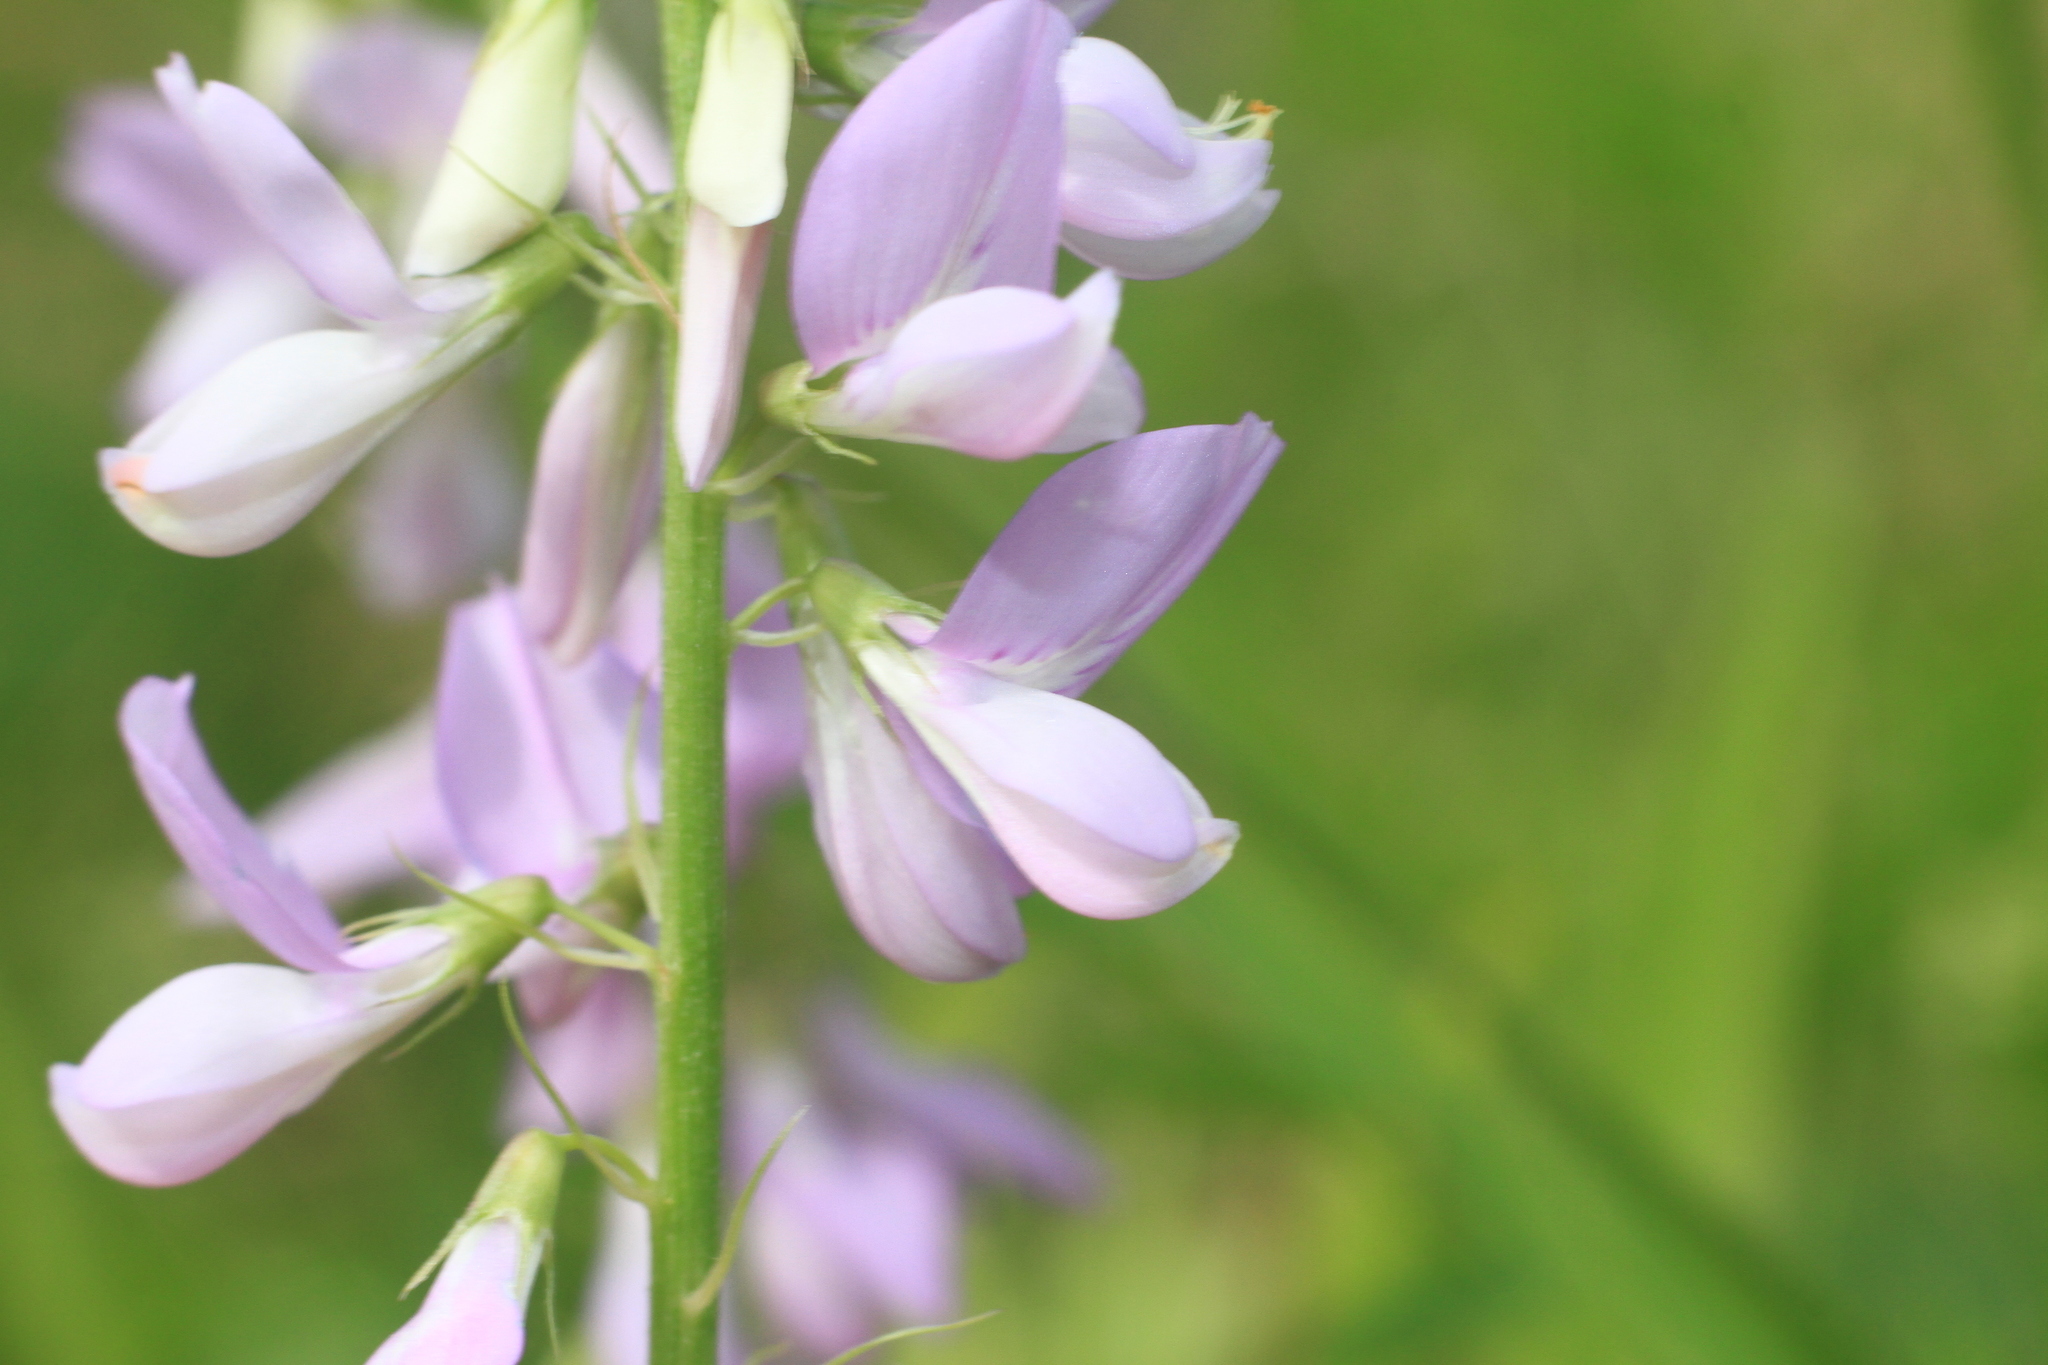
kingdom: Plantae
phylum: Tracheophyta
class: Magnoliopsida
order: Fabales
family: Fabaceae
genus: Galega
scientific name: Galega officinalis
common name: Goat's-rue
